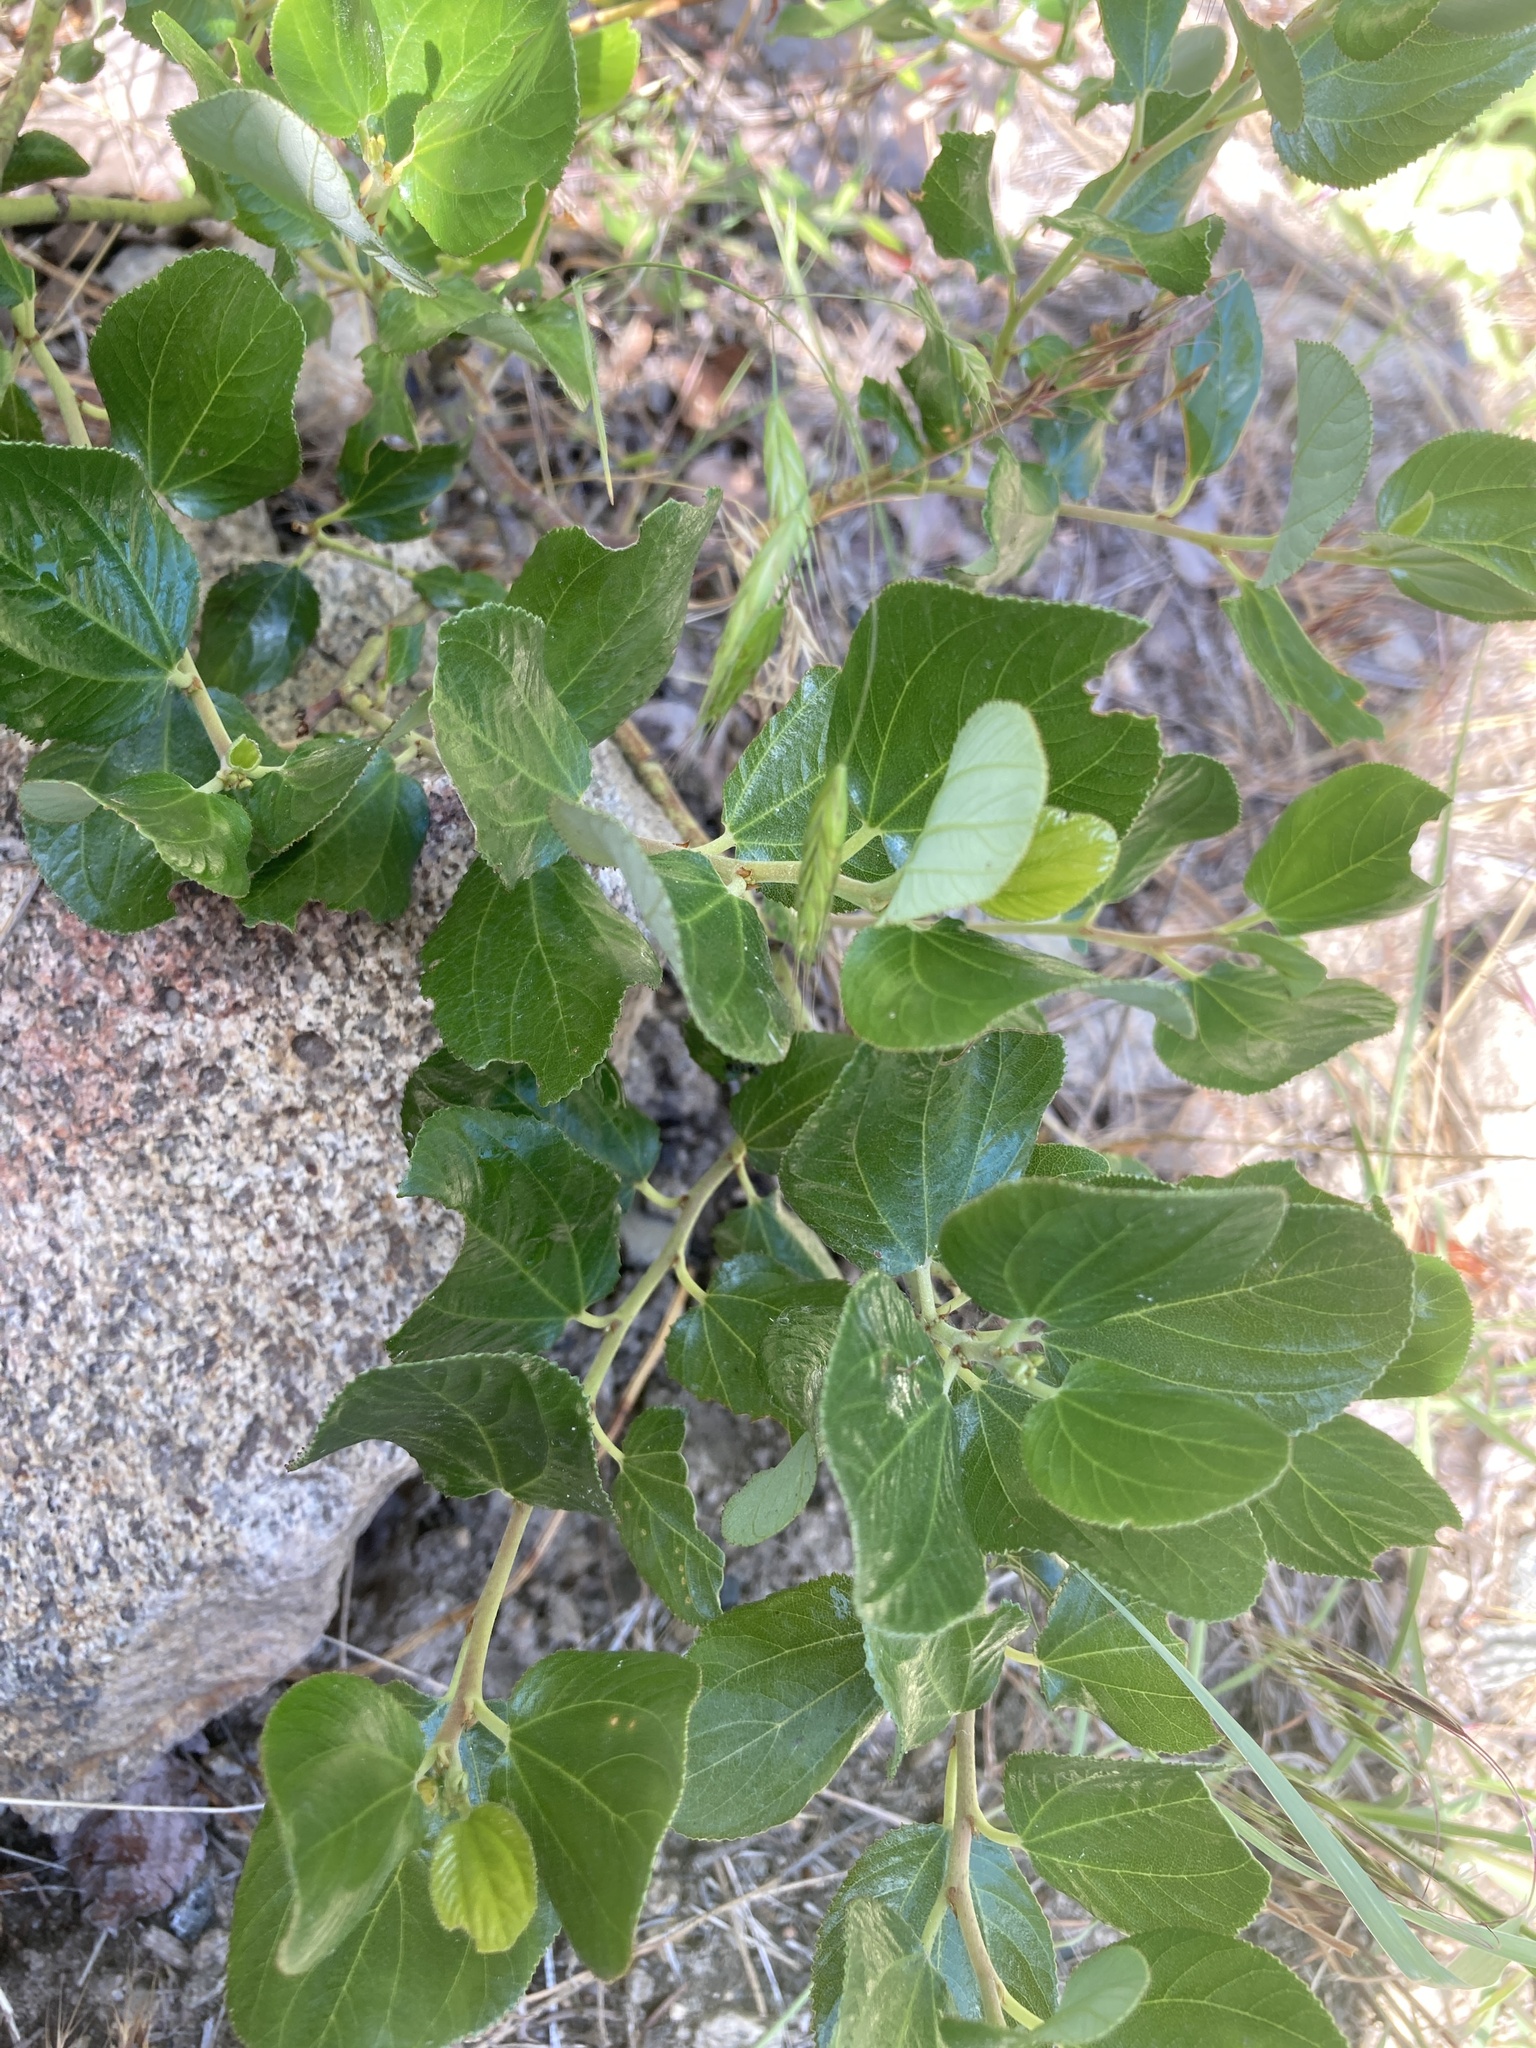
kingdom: Plantae
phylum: Tracheophyta
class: Magnoliopsida
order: Rosales
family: Rhamnaceae
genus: Ceanothus
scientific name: Ceanothus velutinus
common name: Snowbrush
